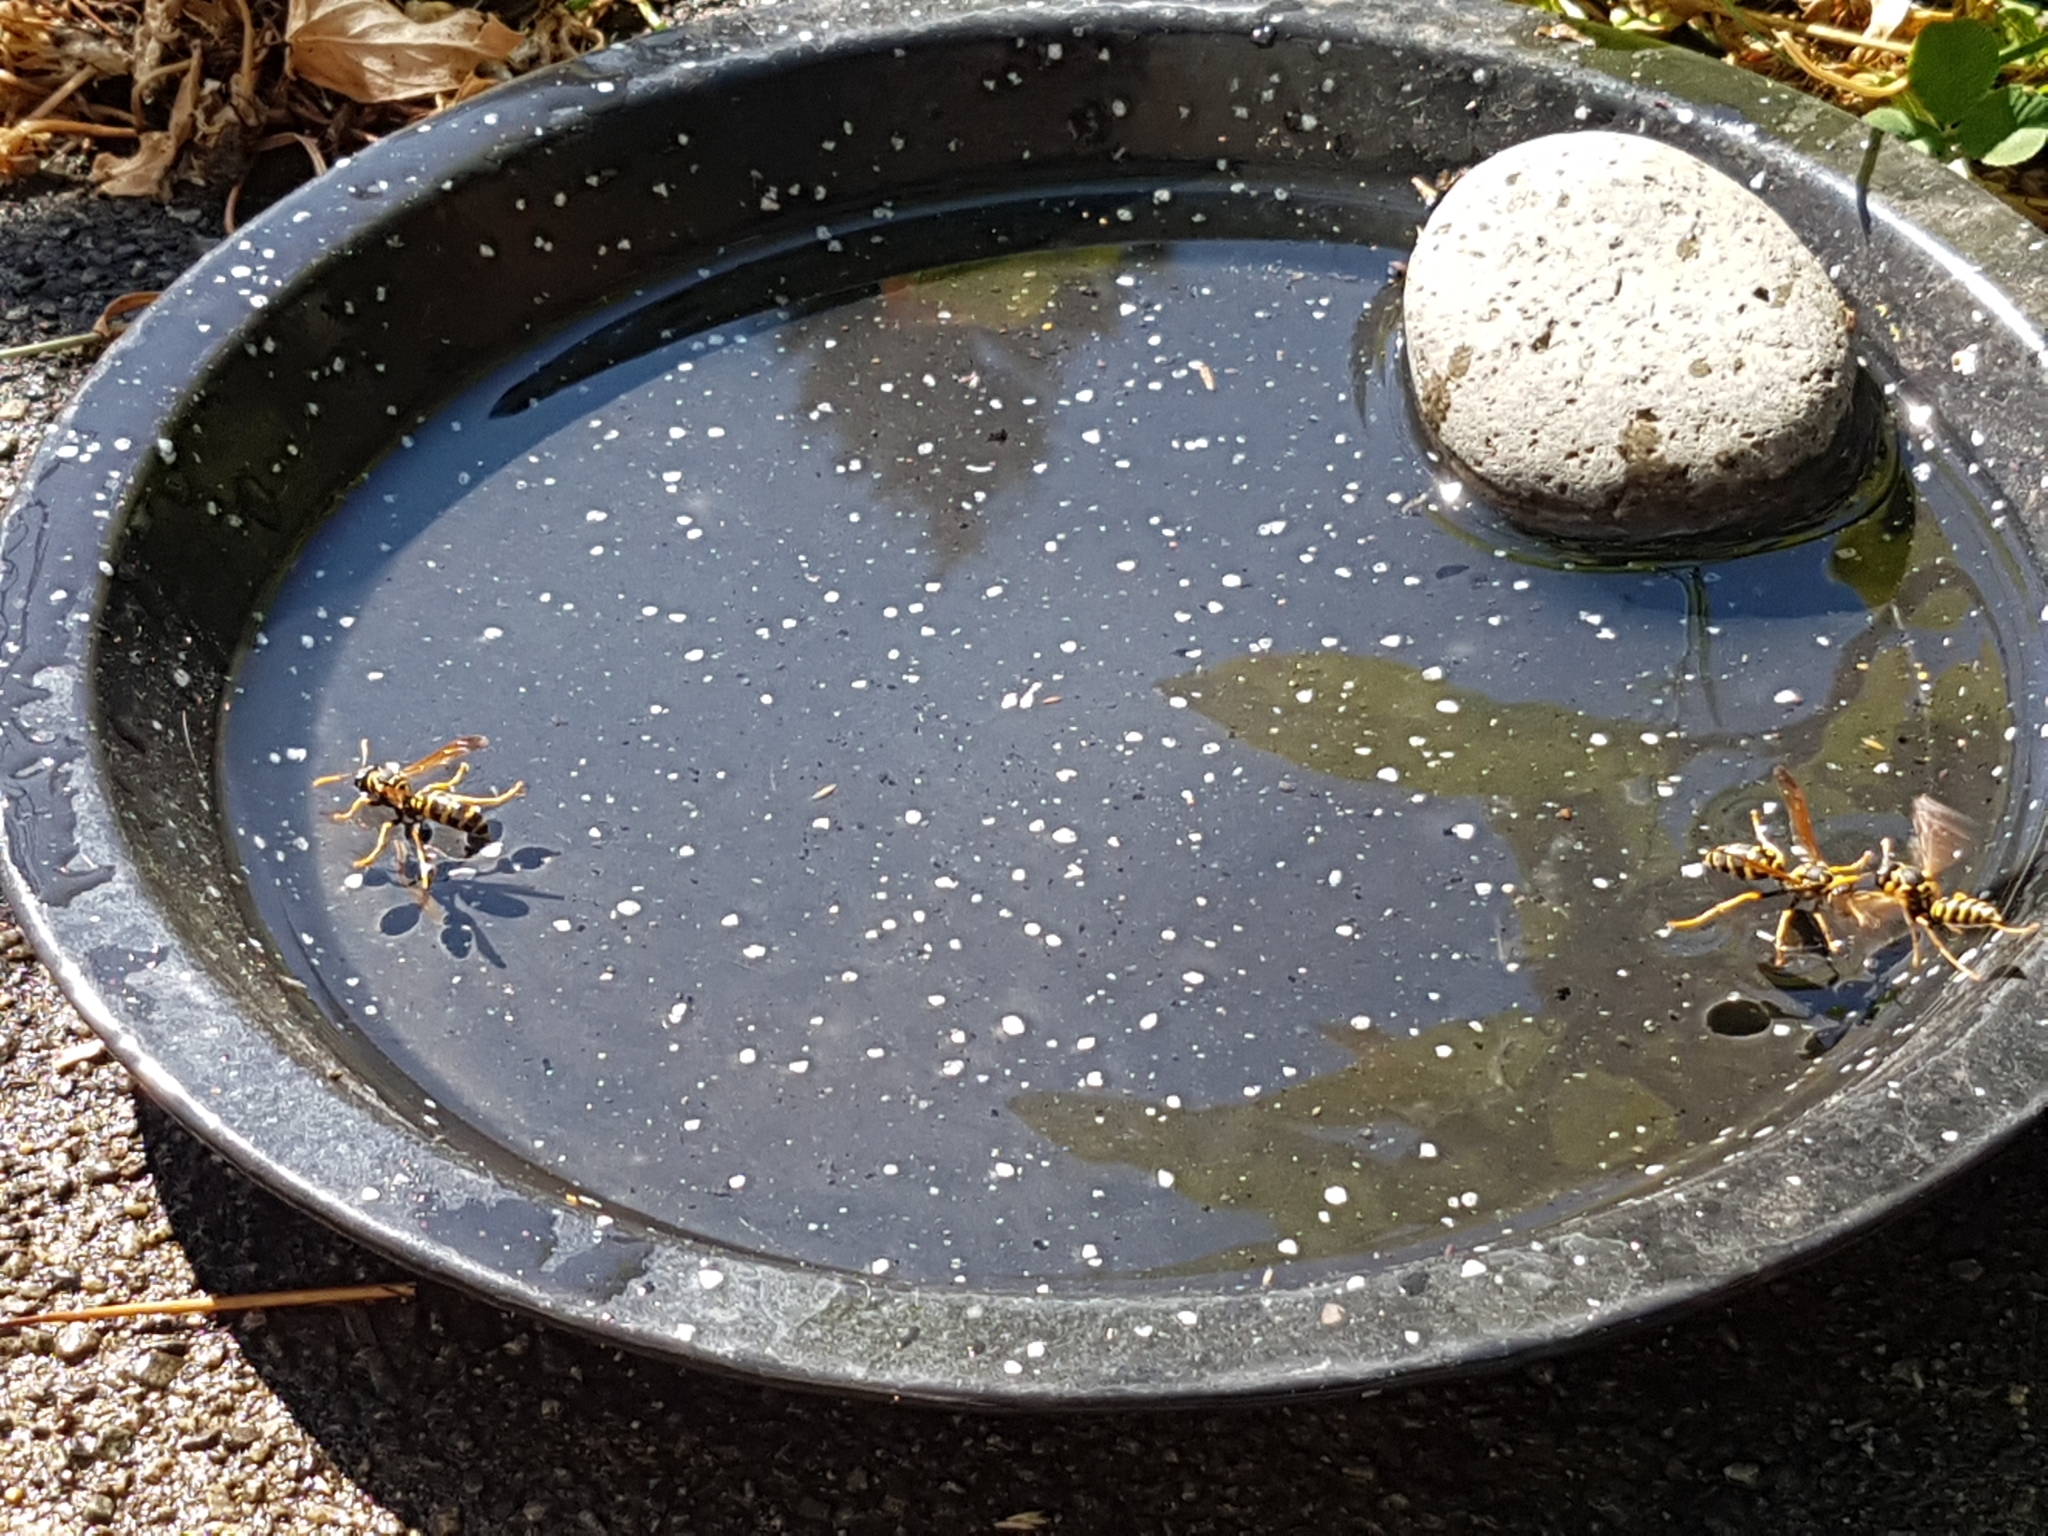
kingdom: Animalia
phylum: Arthropoda
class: Insecta
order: Hymenoptera
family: Eumenidae
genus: Polistes
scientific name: Polistes dominula
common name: Paper wasp
